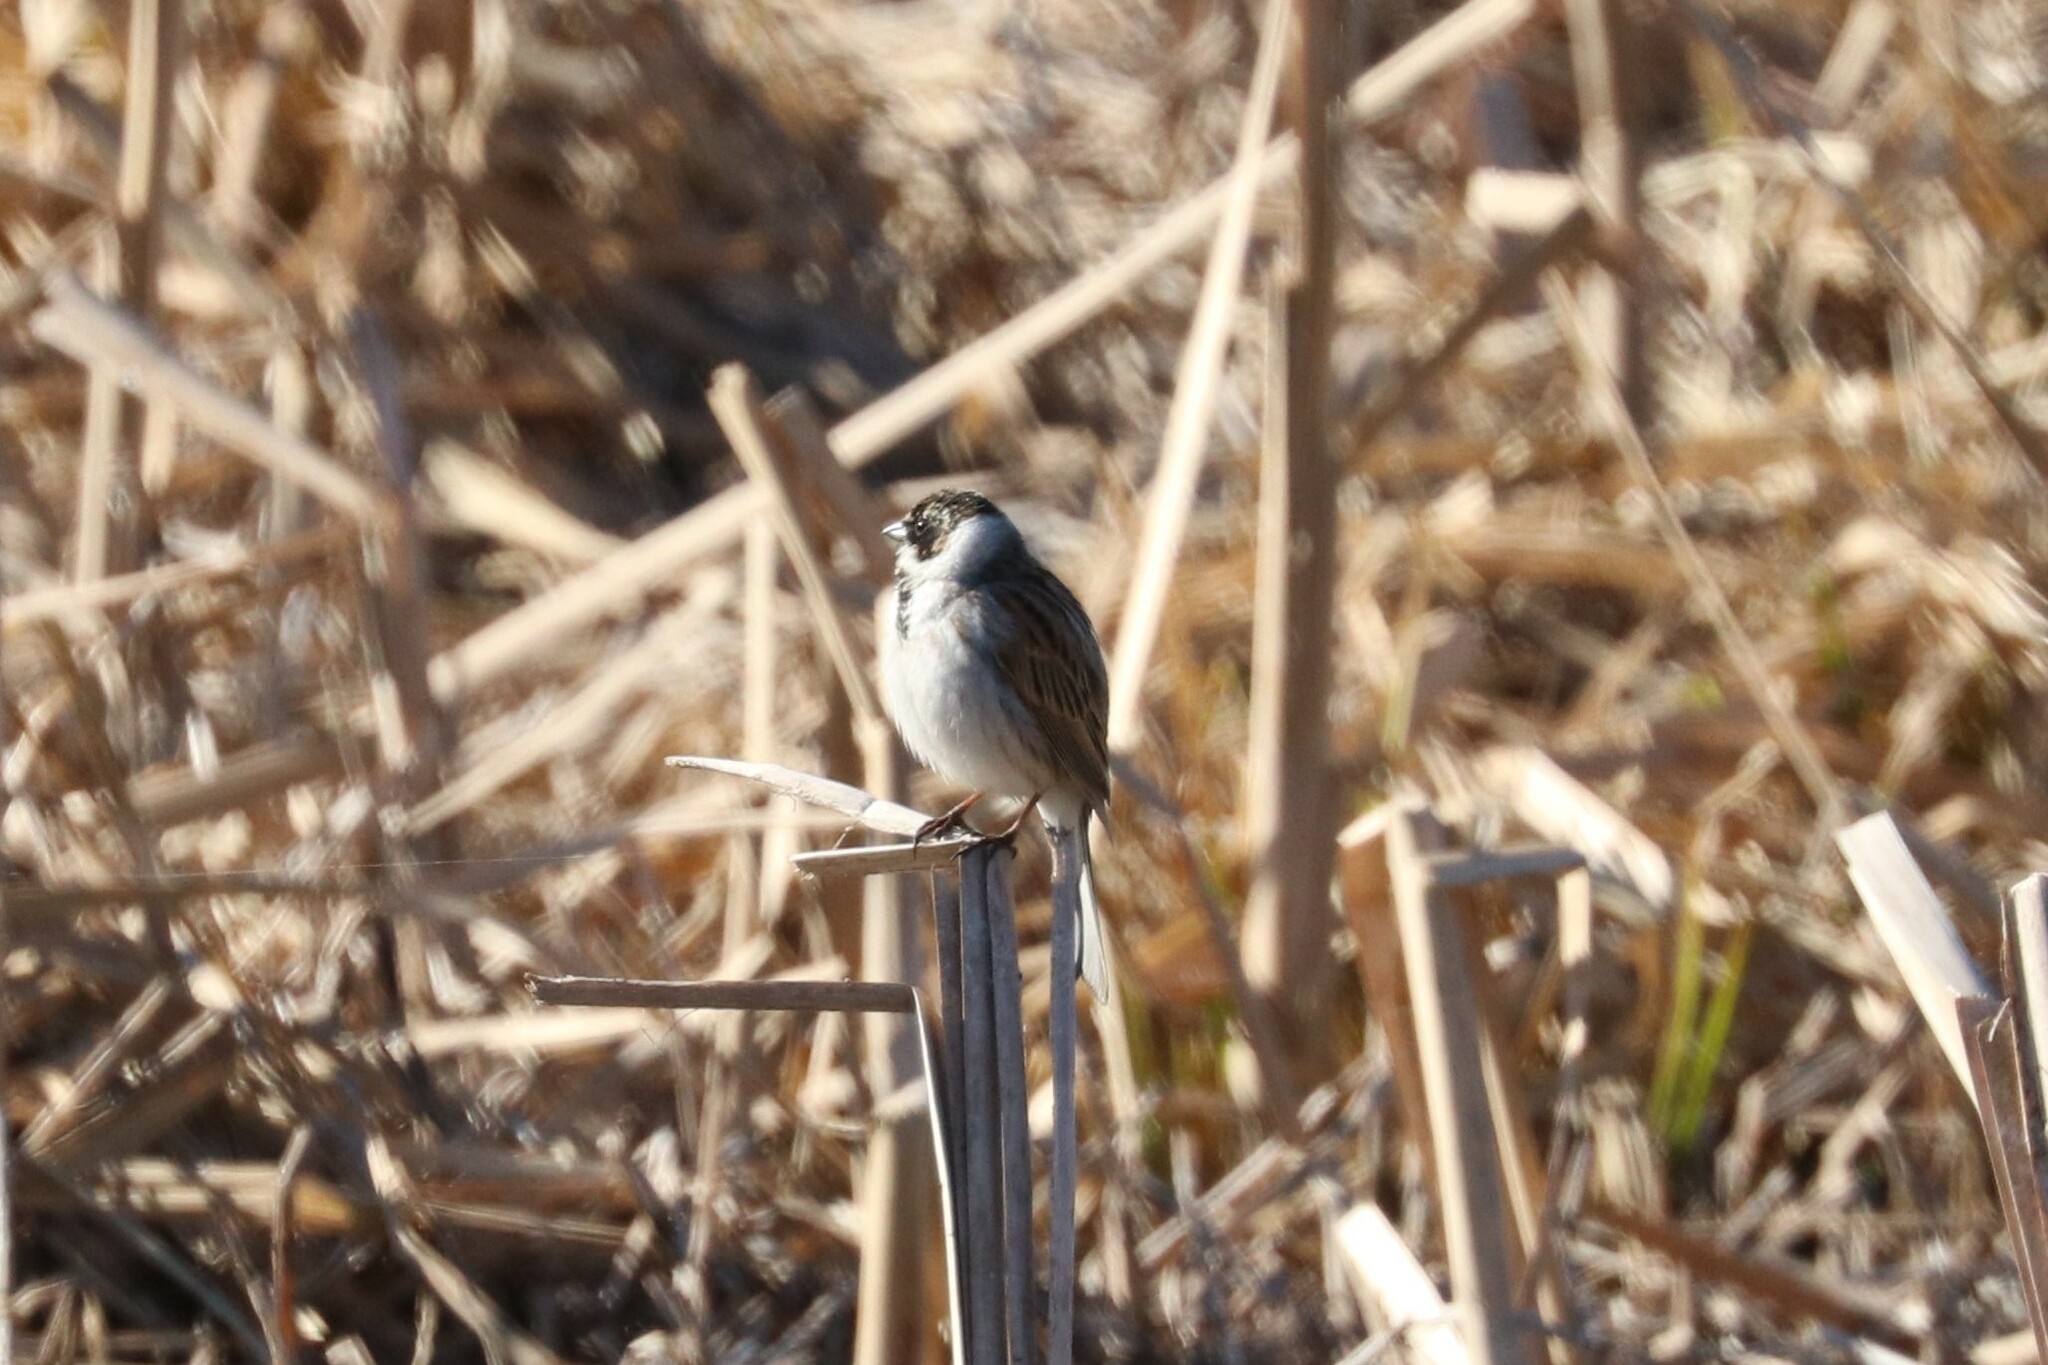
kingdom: Animalia
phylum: Chordata
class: Aves
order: Passeriformes
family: Emberizidae
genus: Emberiza
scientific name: Emberiza schoeniclus
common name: Reed bunting
